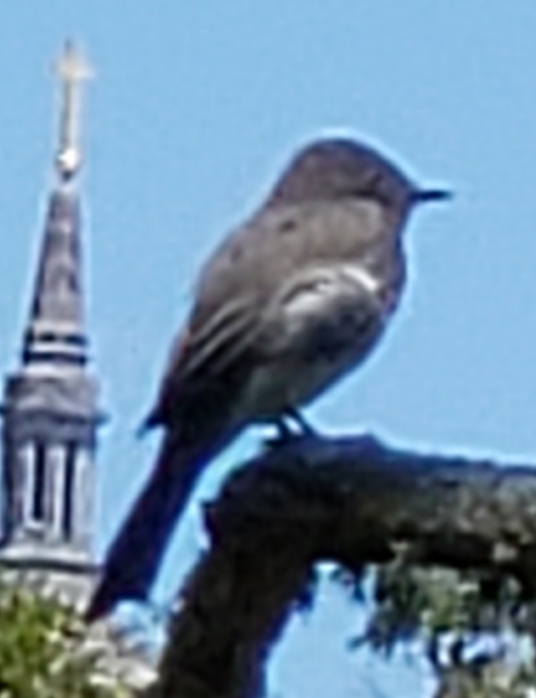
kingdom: Animalia
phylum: Chordata
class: Aves
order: Passeriformes
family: Tyrannidae
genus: Sayornis
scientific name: Sayornis nigricans
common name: Black phoebe
